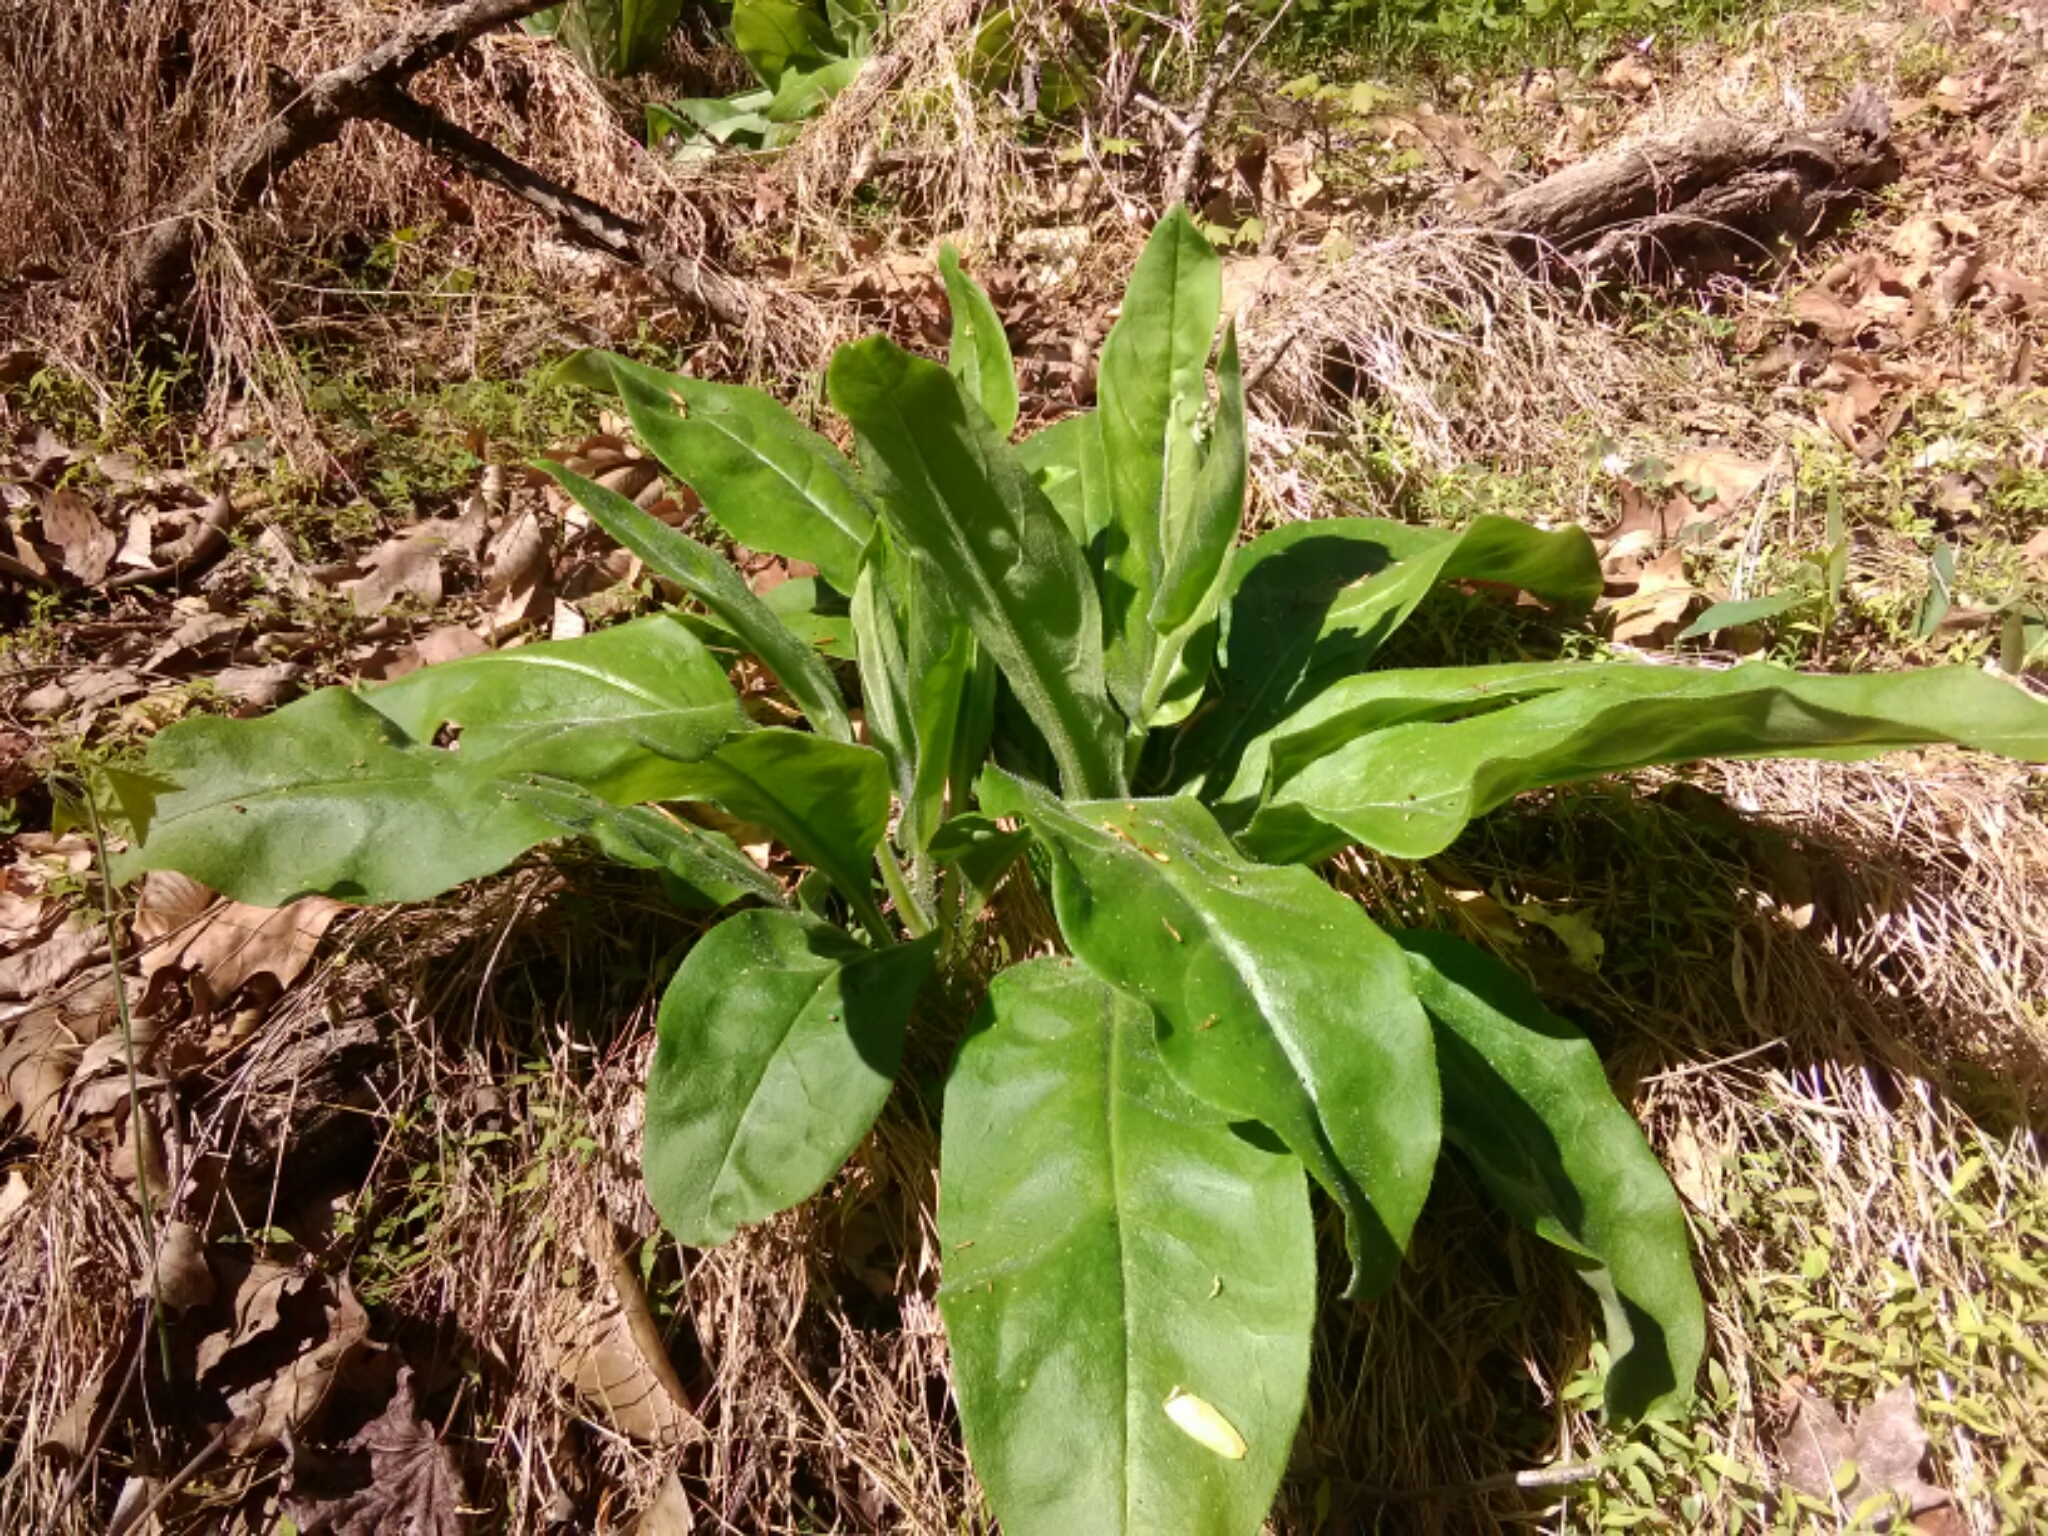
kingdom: Plantae
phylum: Tracheophyta
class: Magnoliopsida
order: Boraginales
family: Boraginaceae
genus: Andersonglossum
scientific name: Andersonglossum virginianum
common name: Wild comfrey
